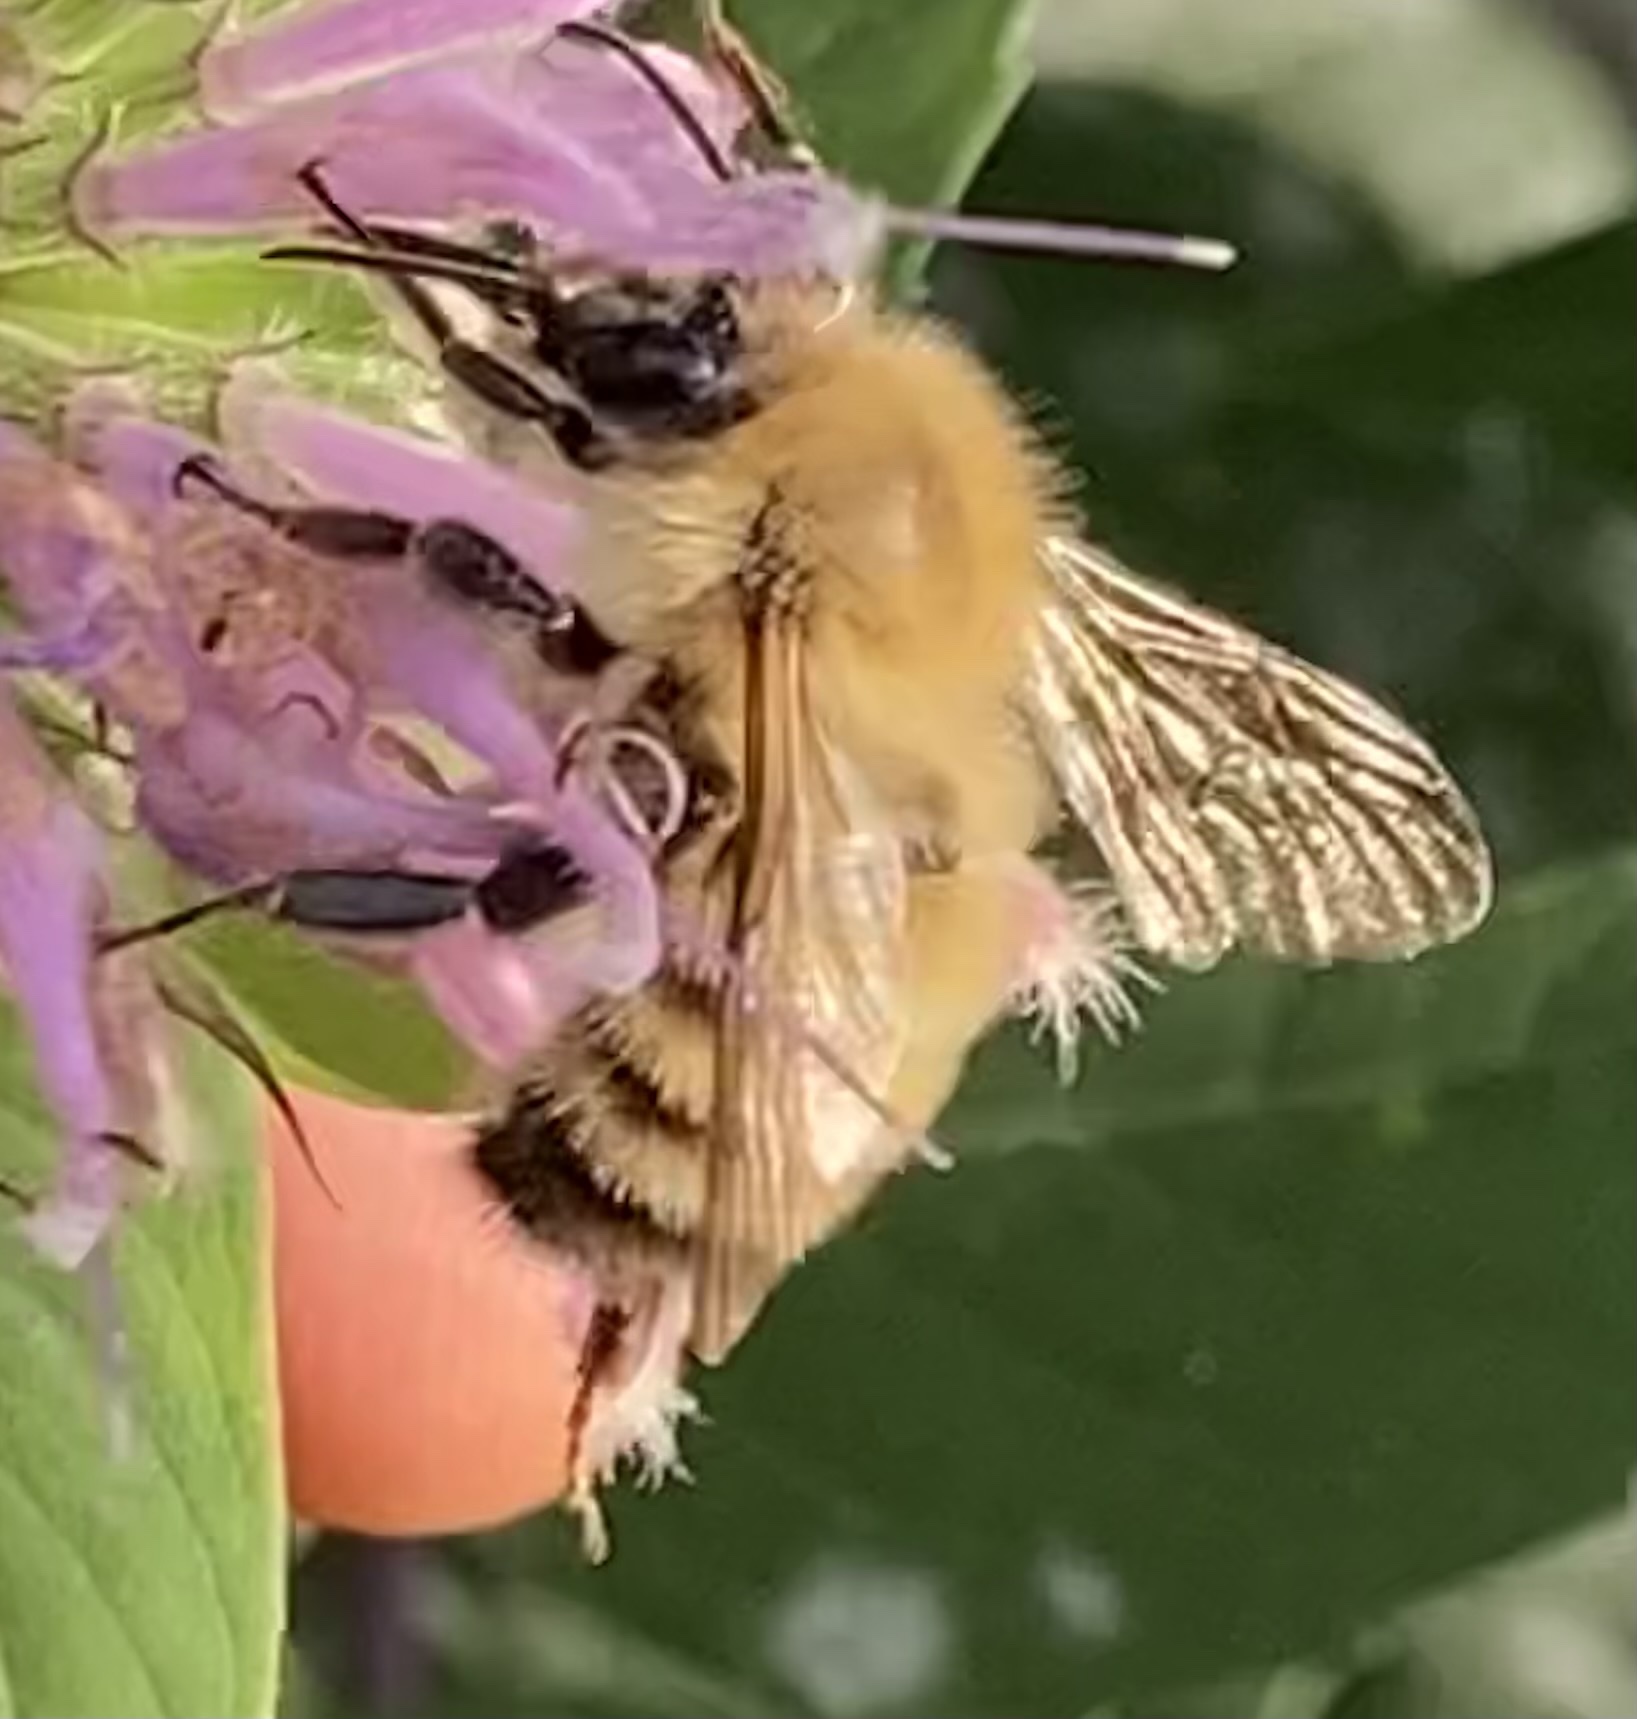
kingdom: Animalia
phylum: Arthropoda
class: Insecta
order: Hymenoptera
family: Apidae
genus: Bombus
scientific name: Bombus perplexus
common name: Confusing bumble bee
